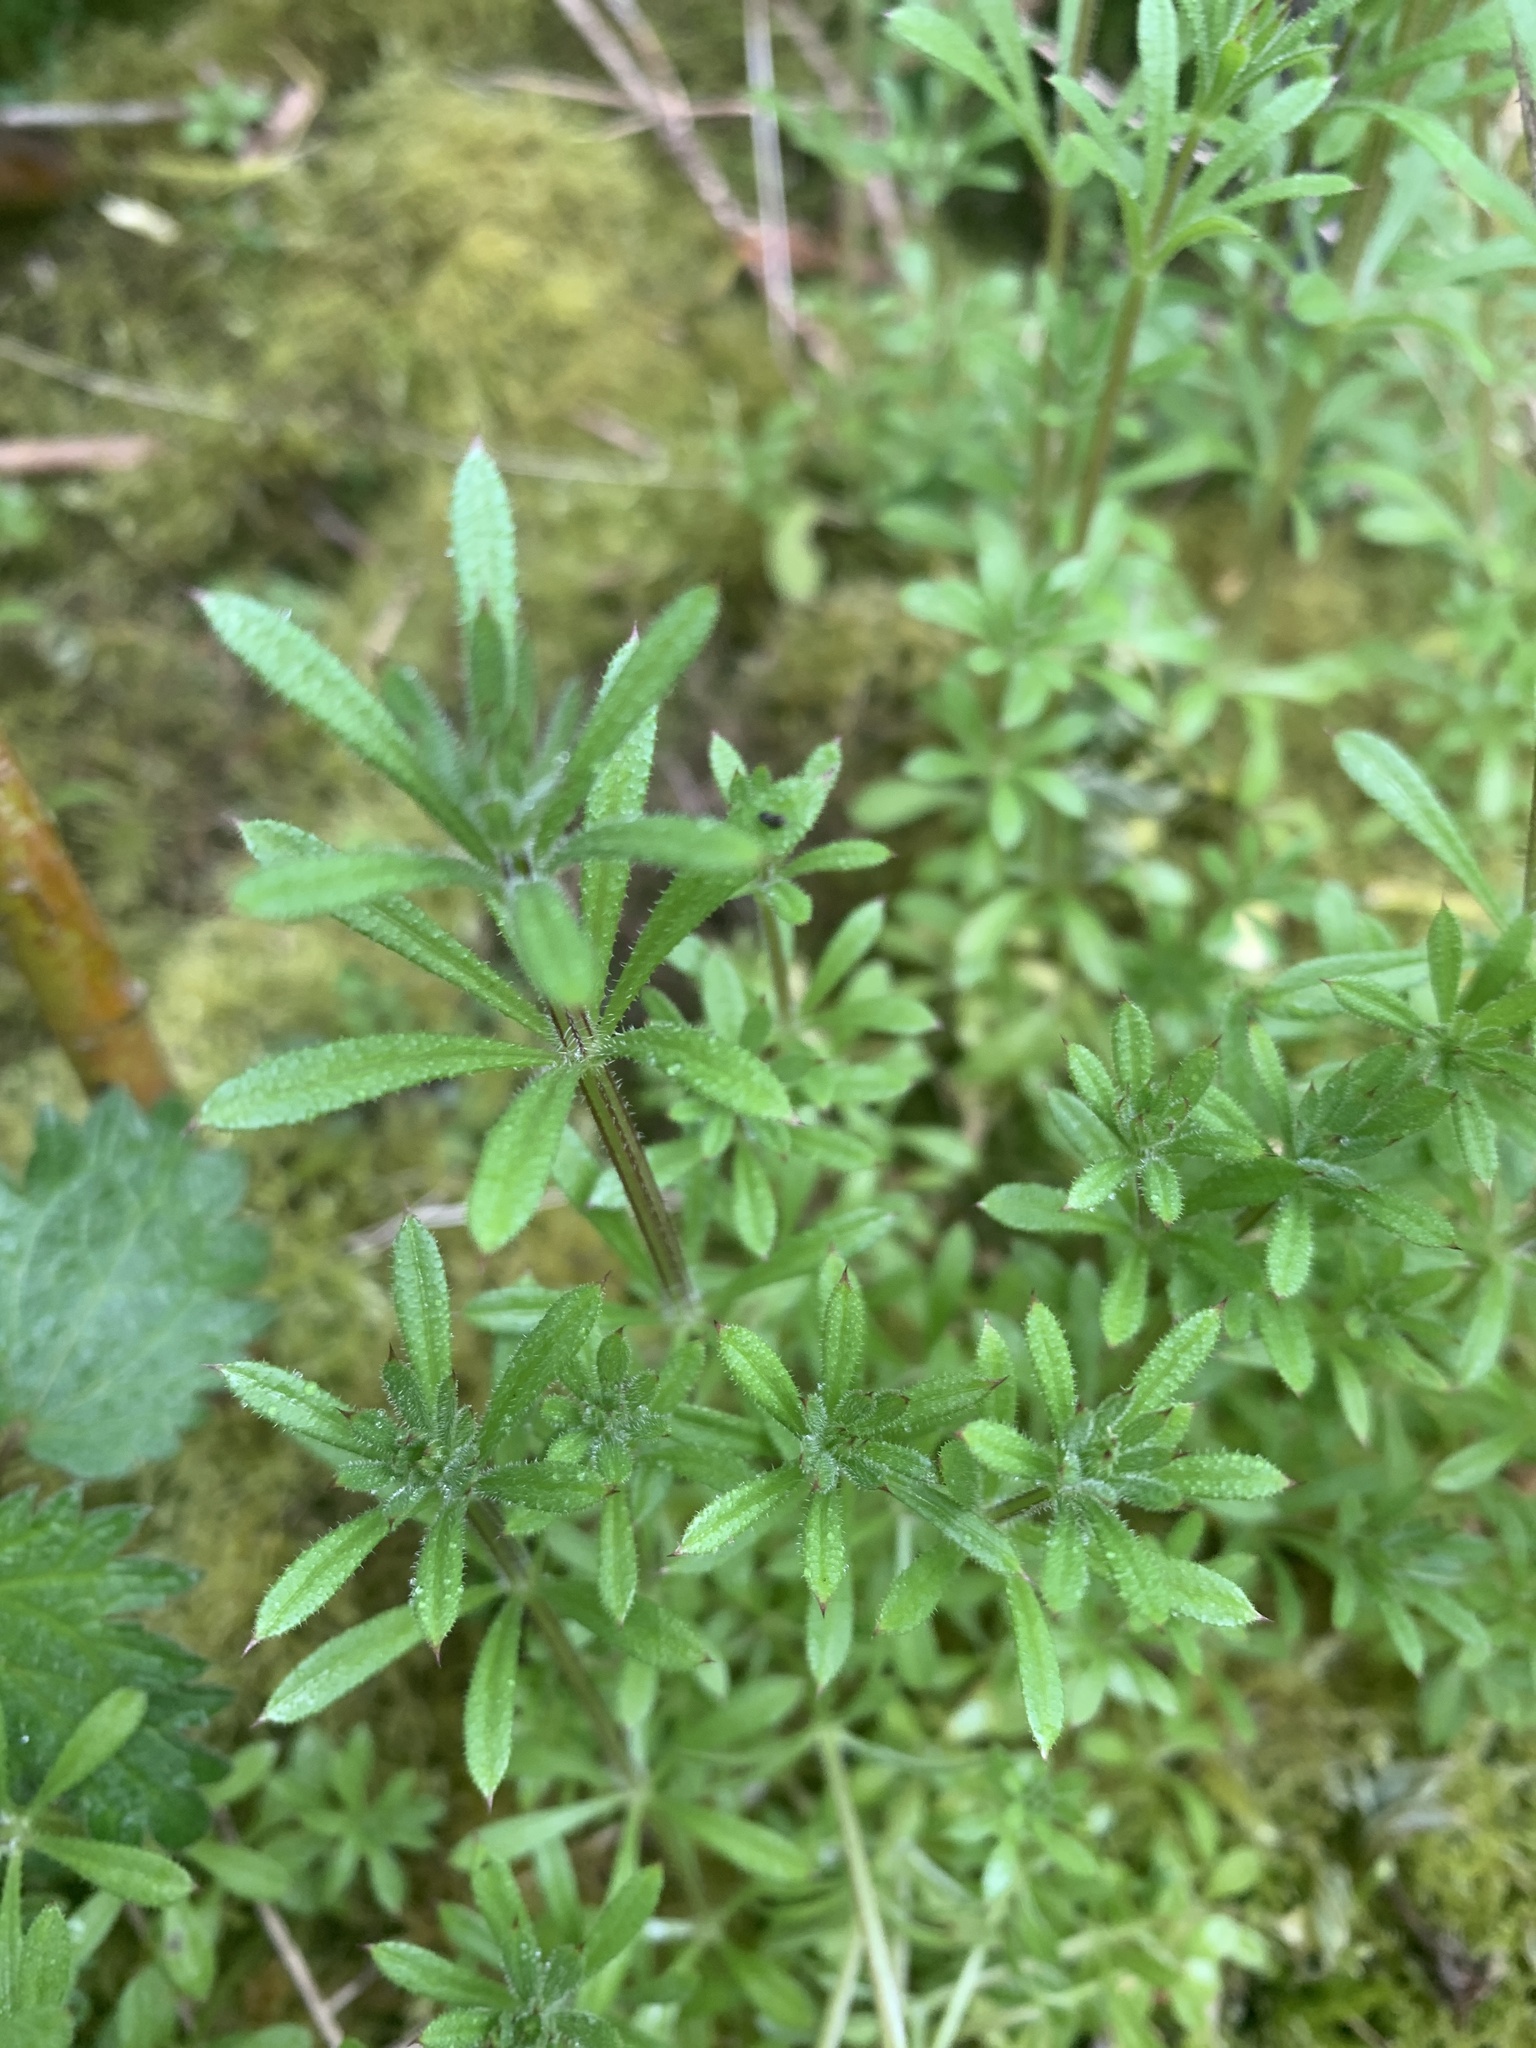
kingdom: Plantae
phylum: Tracheophyta
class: Magnoliopsida
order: Gentianales
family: Rubiaceae
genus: Galium
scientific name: Galium aparine
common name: Cleavers
